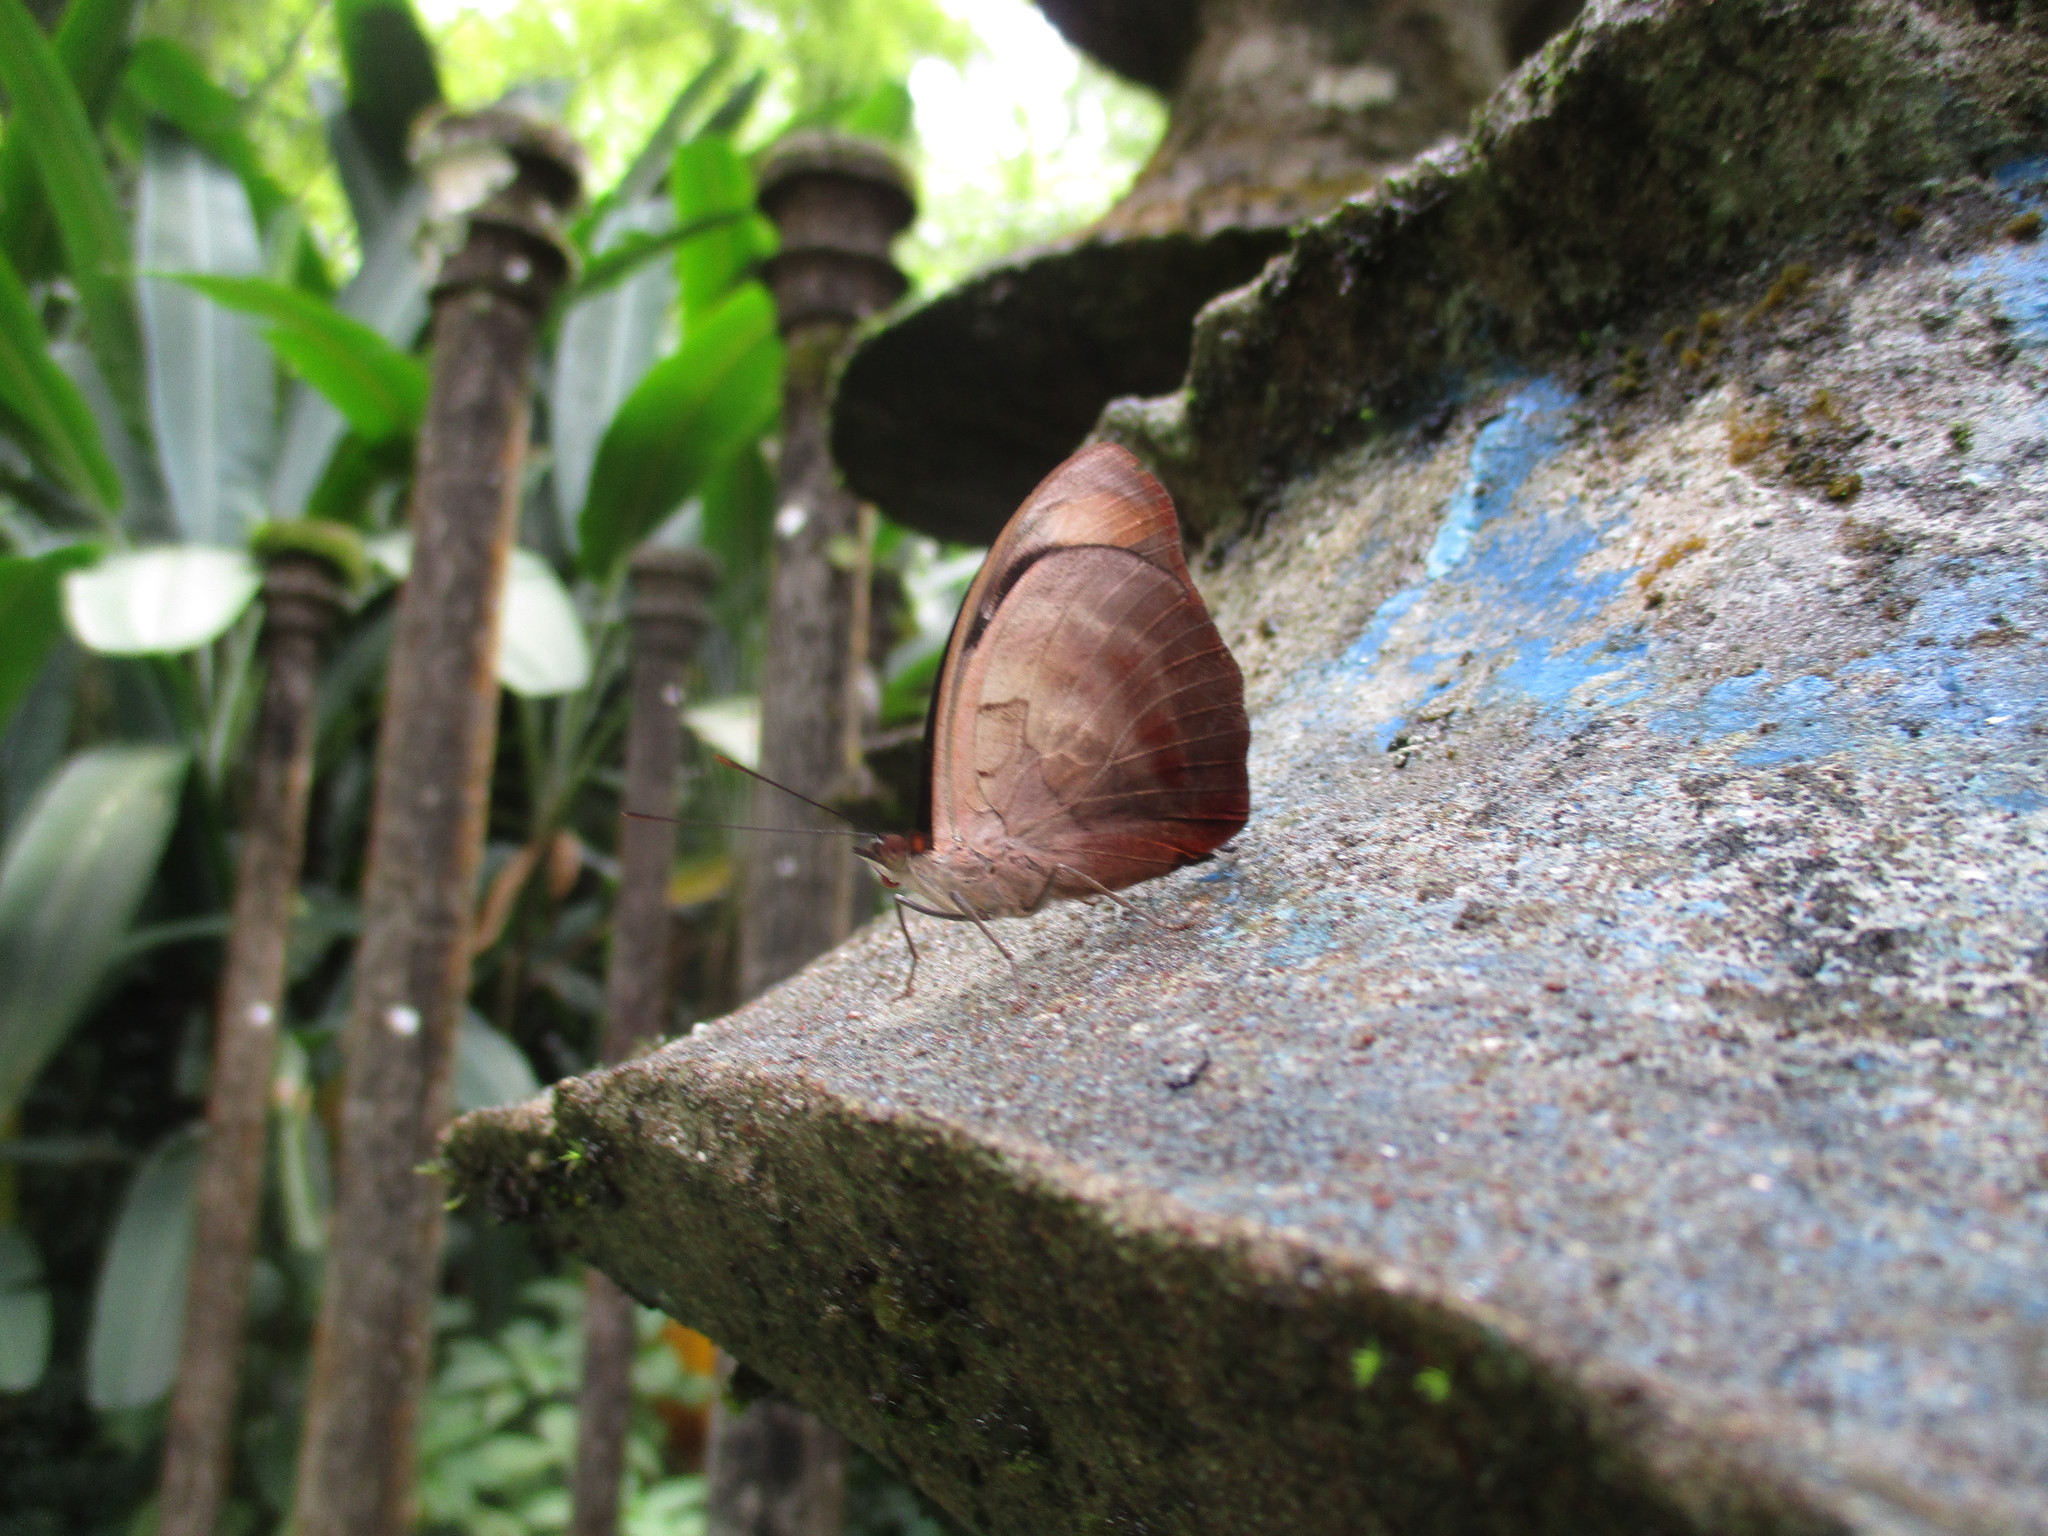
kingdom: Animalia
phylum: Arthropoda
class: Insecta
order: Lepidoptera
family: Nymphalidae
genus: Catonephele
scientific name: Catonephele numilia
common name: Blue-frosted banner
